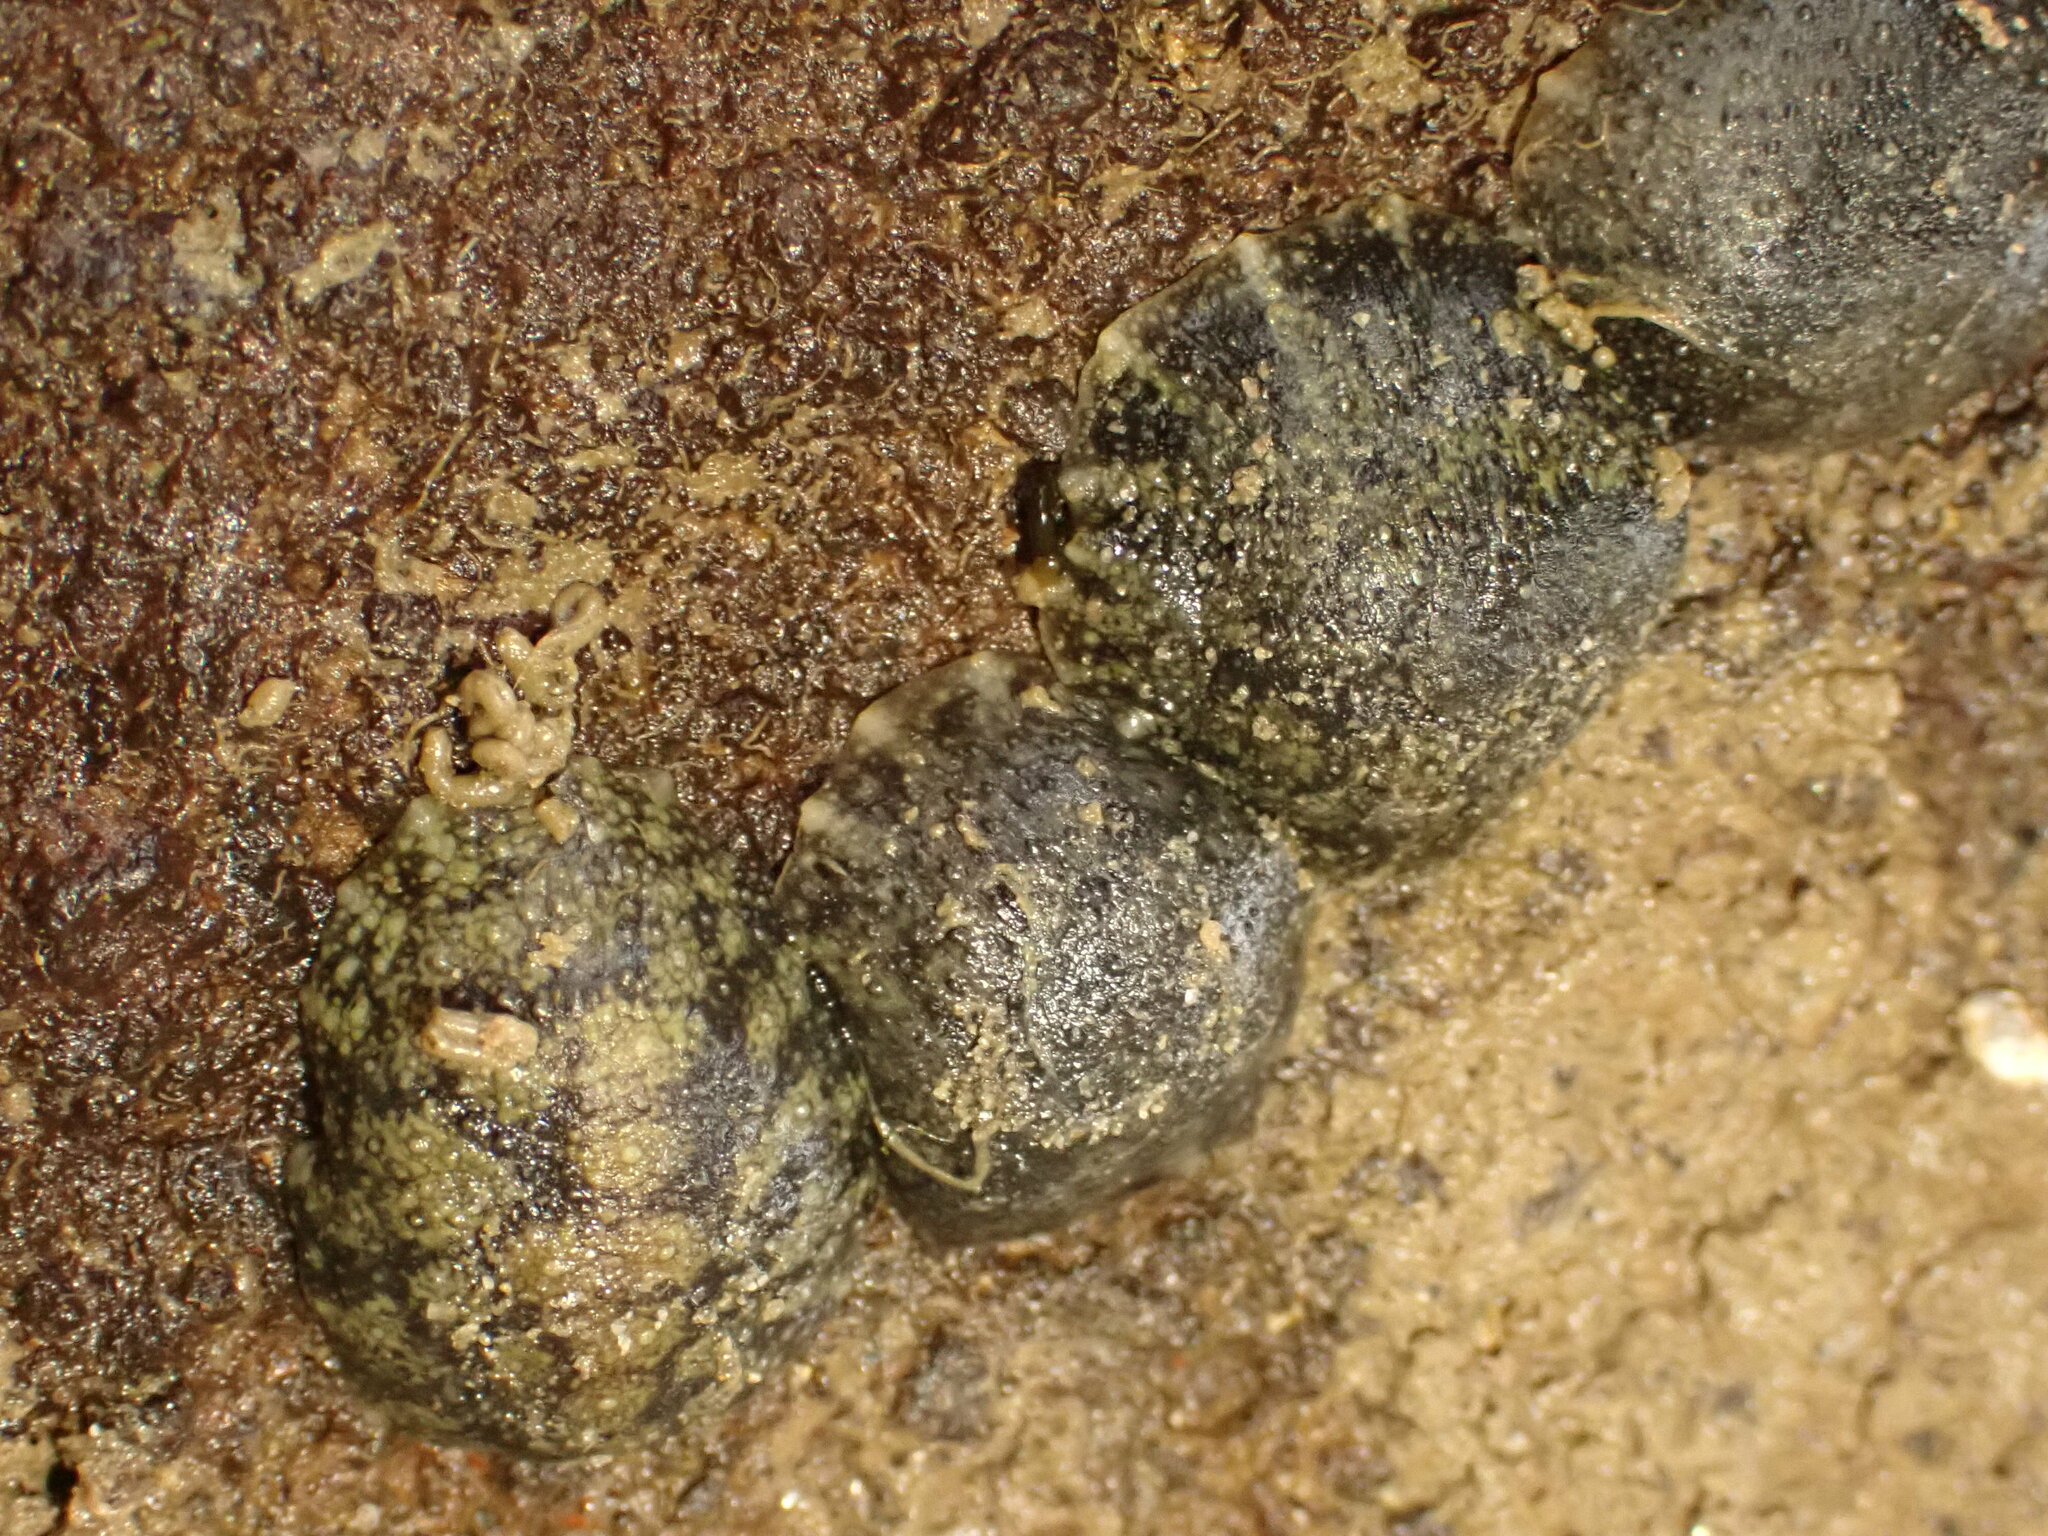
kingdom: Animalia
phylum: Mollusca
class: Gastropoda
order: Systellommatophora
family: Onchidiidae
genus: Onchidella
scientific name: Onchidella nigricans
